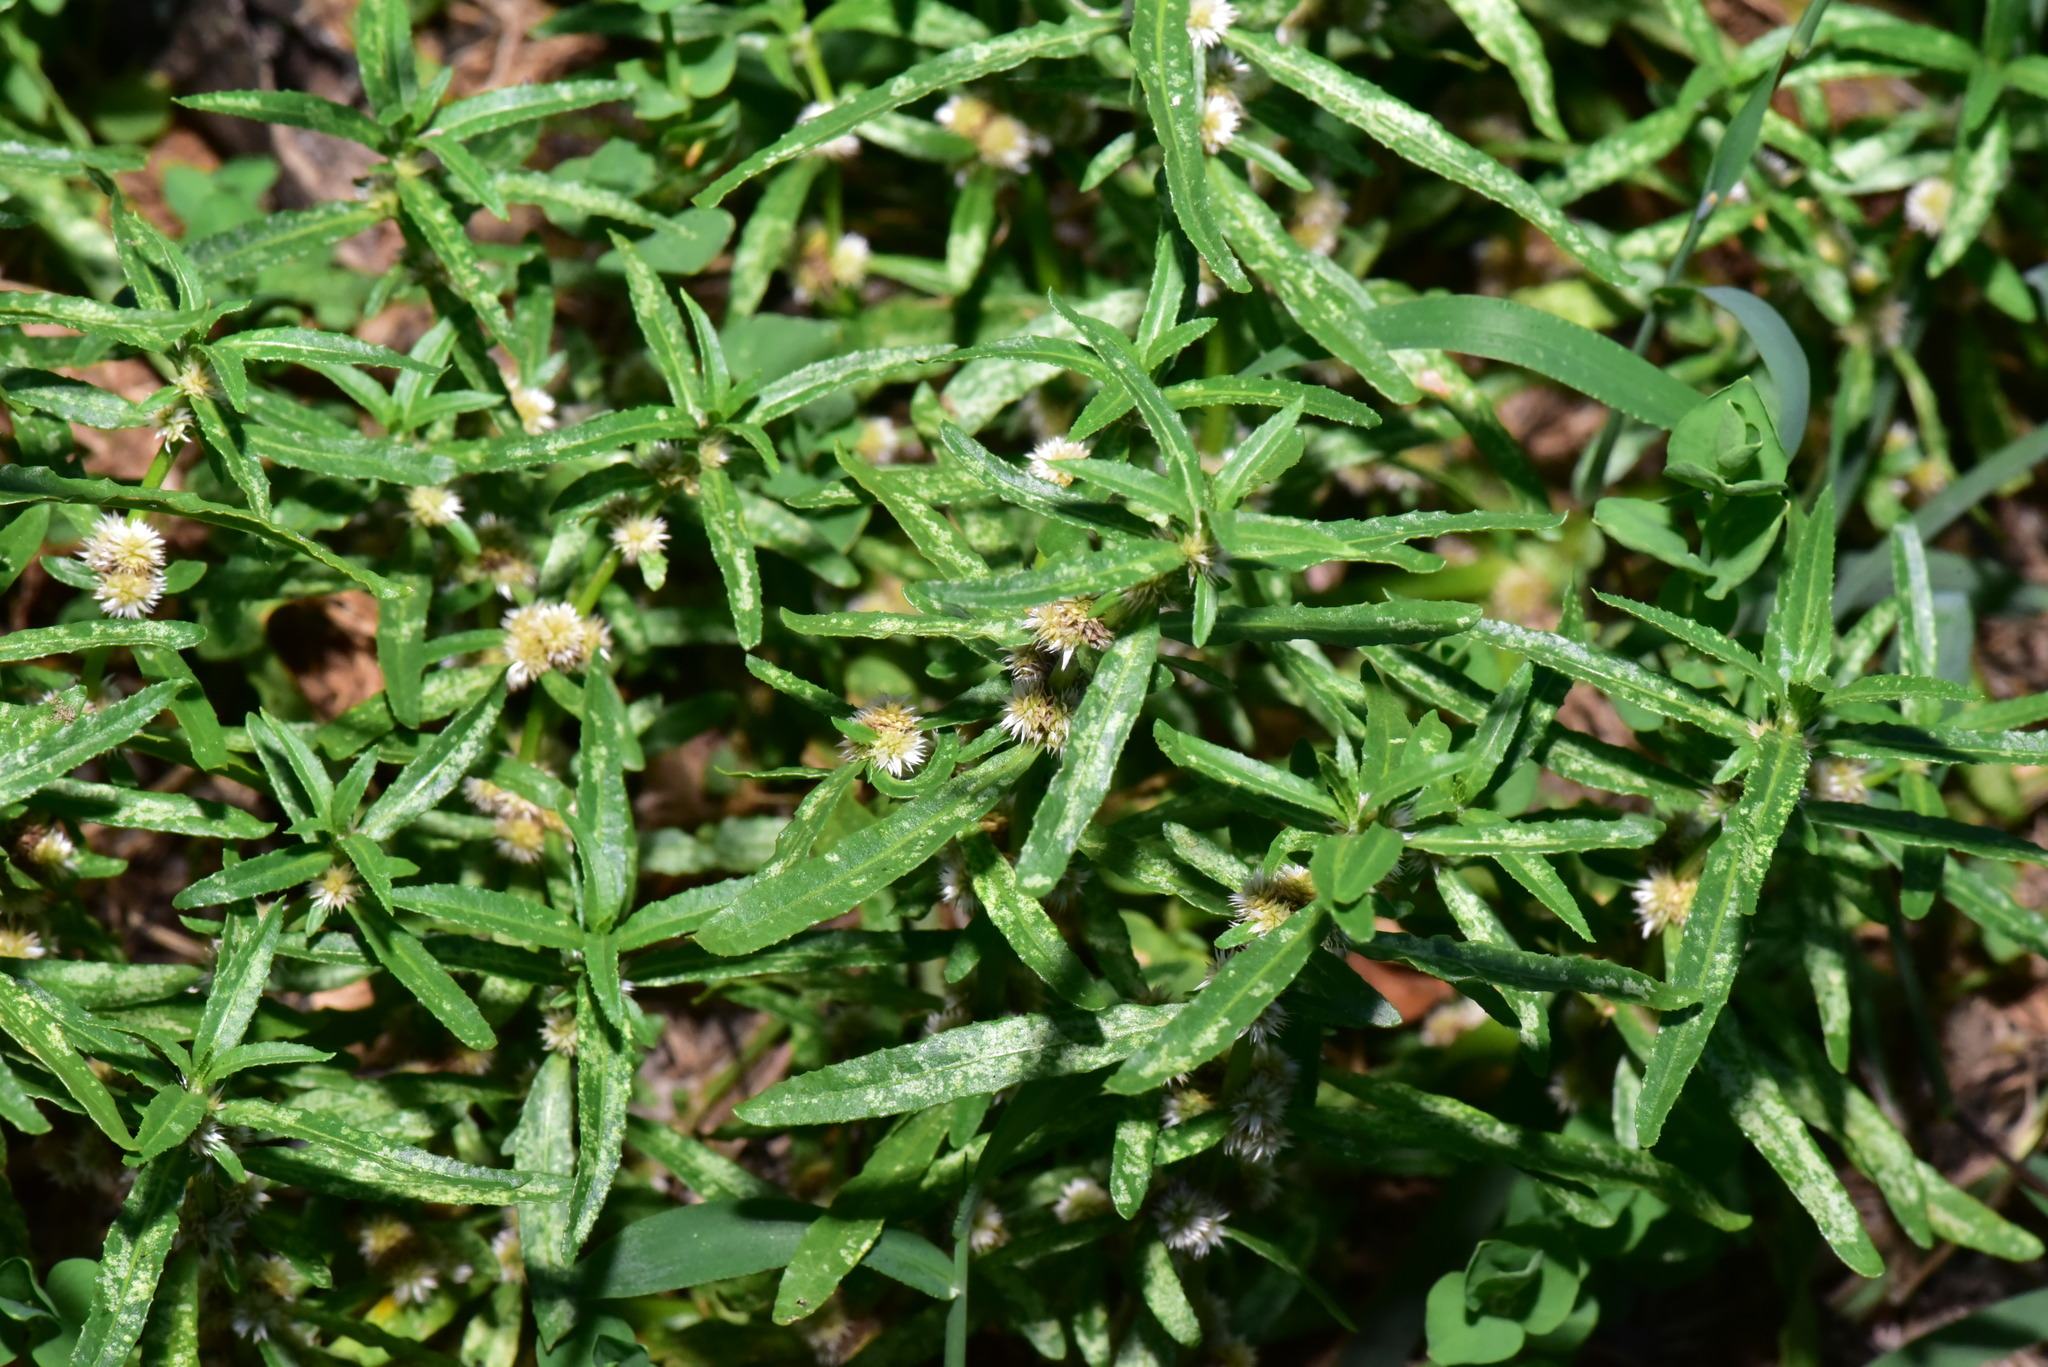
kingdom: Plantae
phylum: Tracheophyta
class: Magnoliopsida
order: Caryophyllales
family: Amaranthaceae
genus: Alternanthera
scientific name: Alternanthera sessilis
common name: Sessile joyweed
